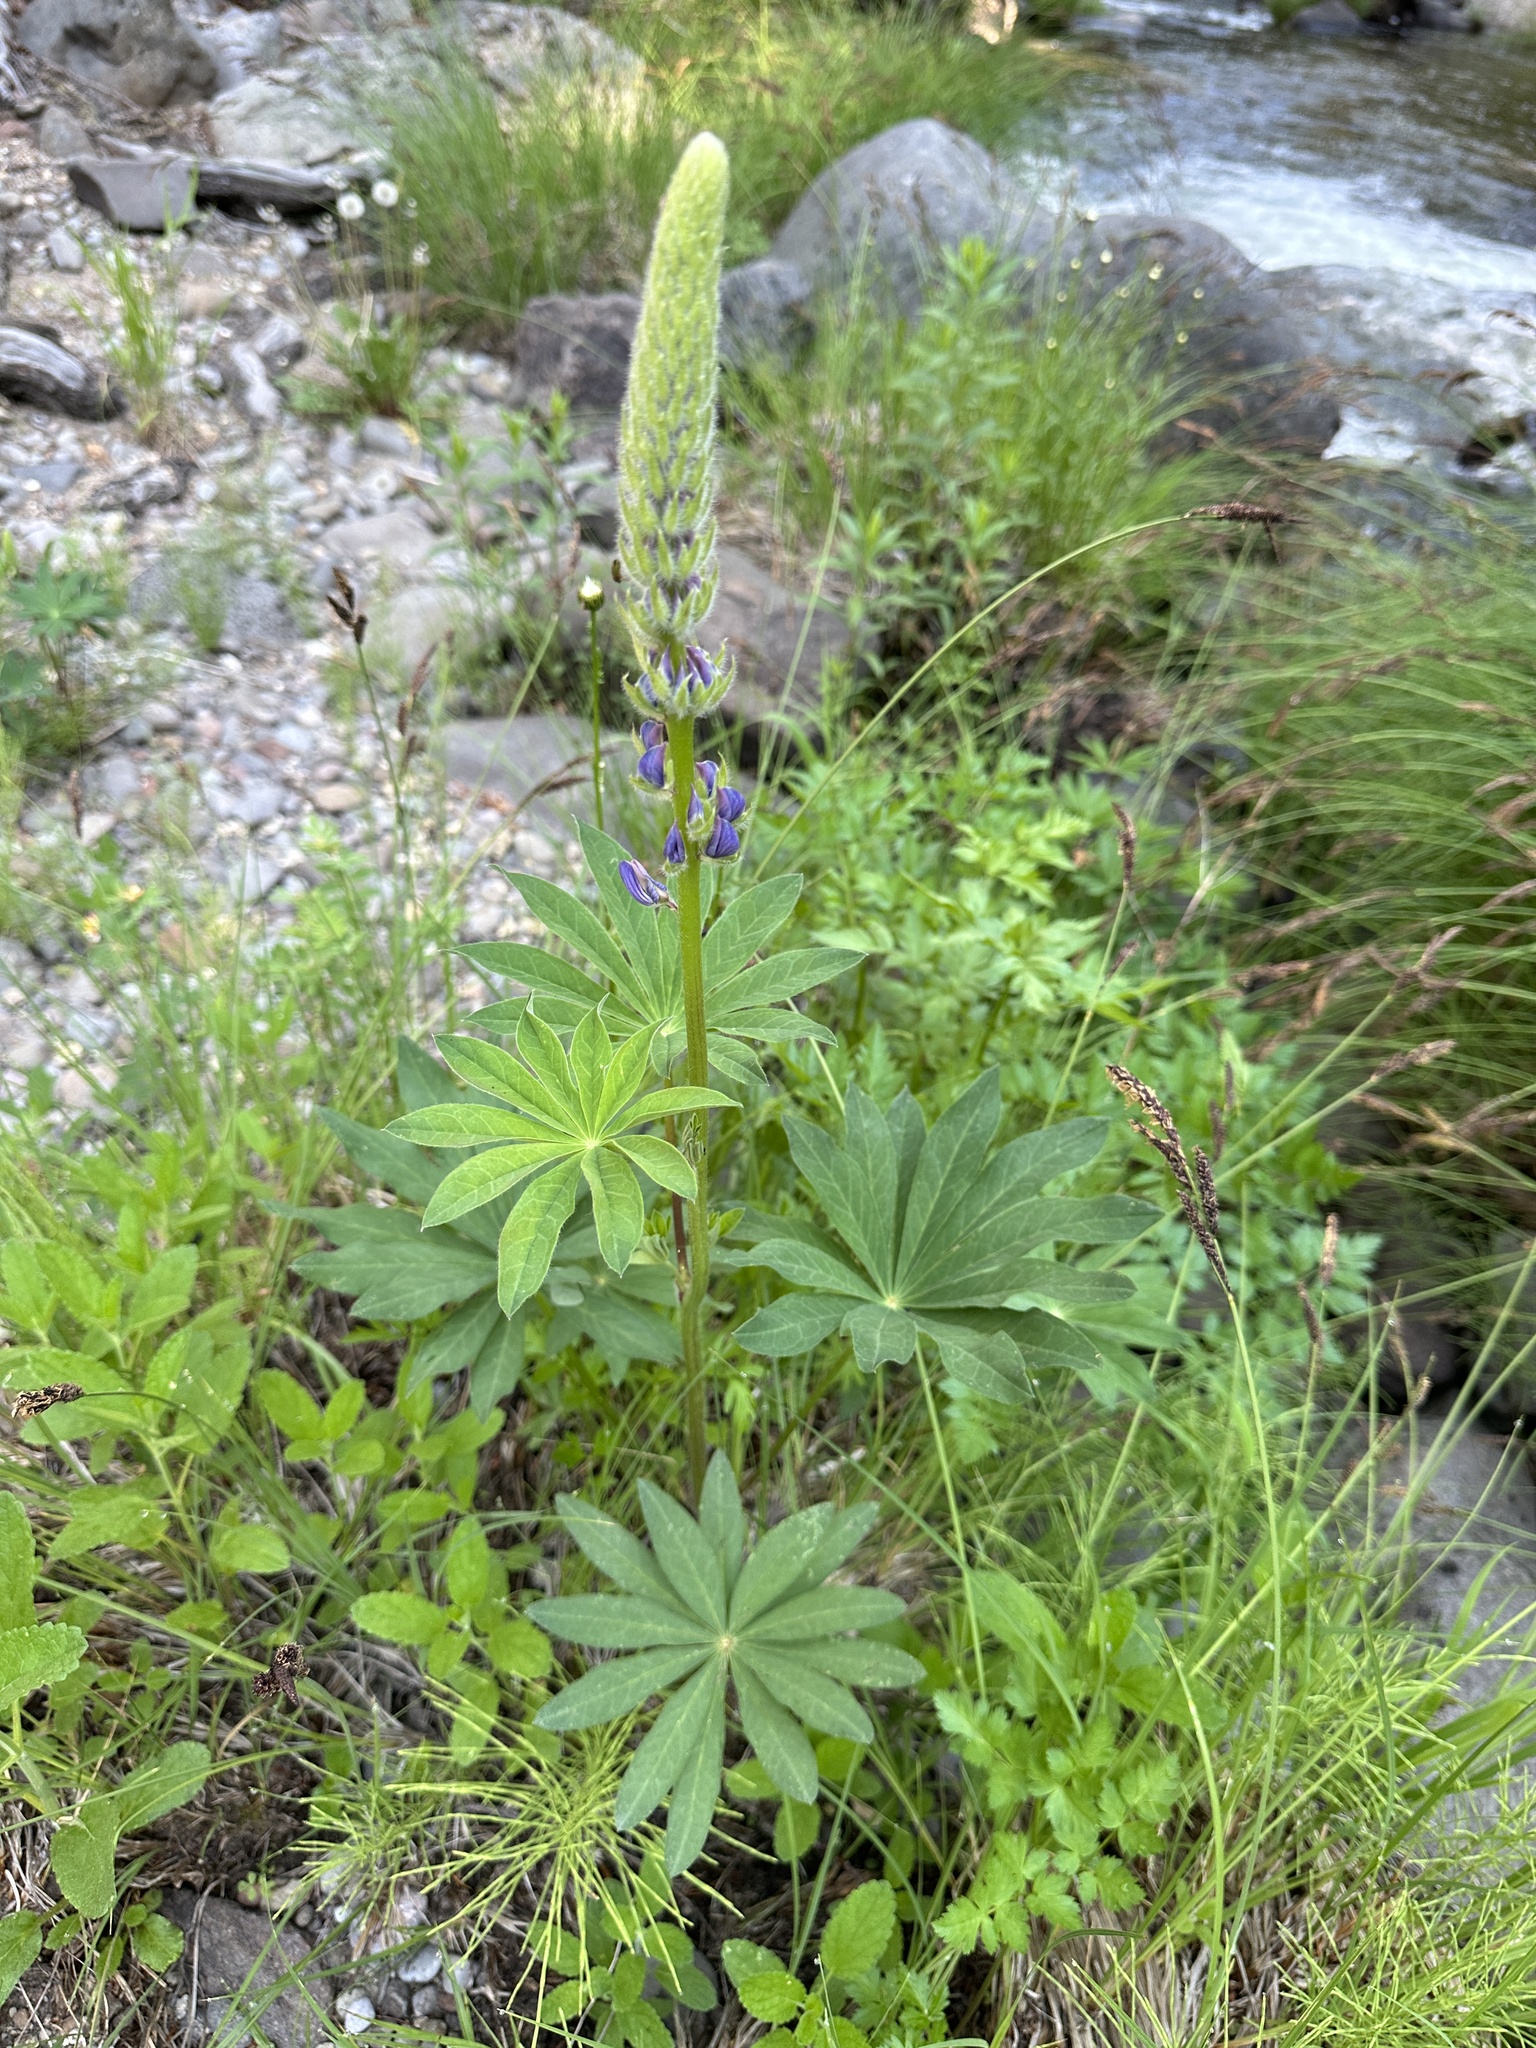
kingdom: Plantae
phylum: Tracheophyta
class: Magnoliopsida
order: Fabales
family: Fabaceae
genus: Lupinus
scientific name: Lupinus polyphyllus
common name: Garden lupin
